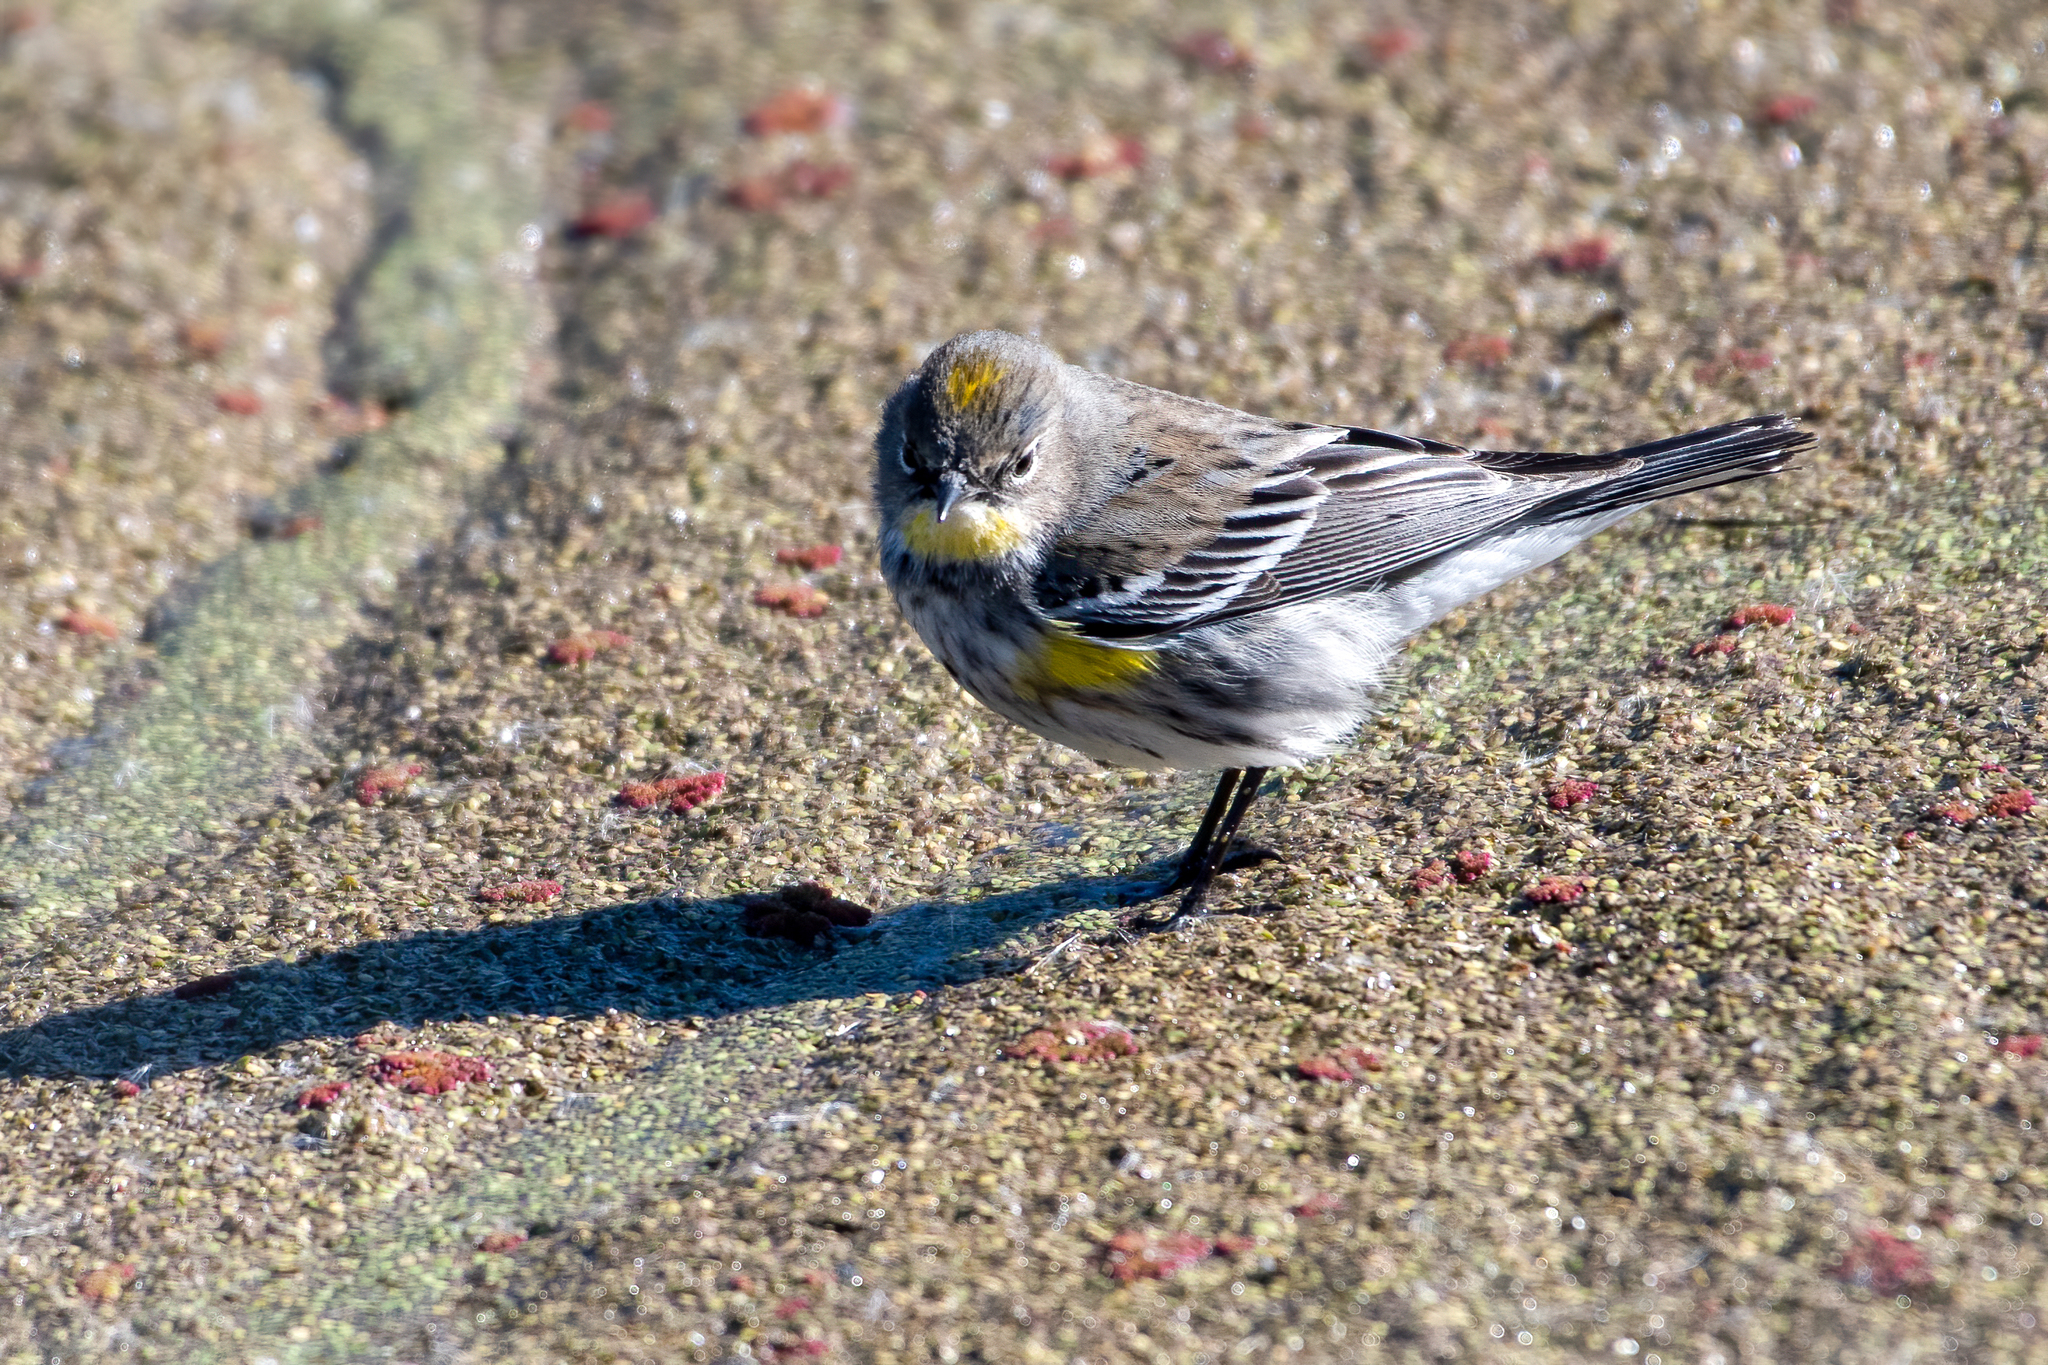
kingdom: Animalia
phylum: Chordata
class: Aves
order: Passeriformes
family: Parulidae
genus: Setophaga
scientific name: Setophaga coronata
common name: Myrtle warbler
